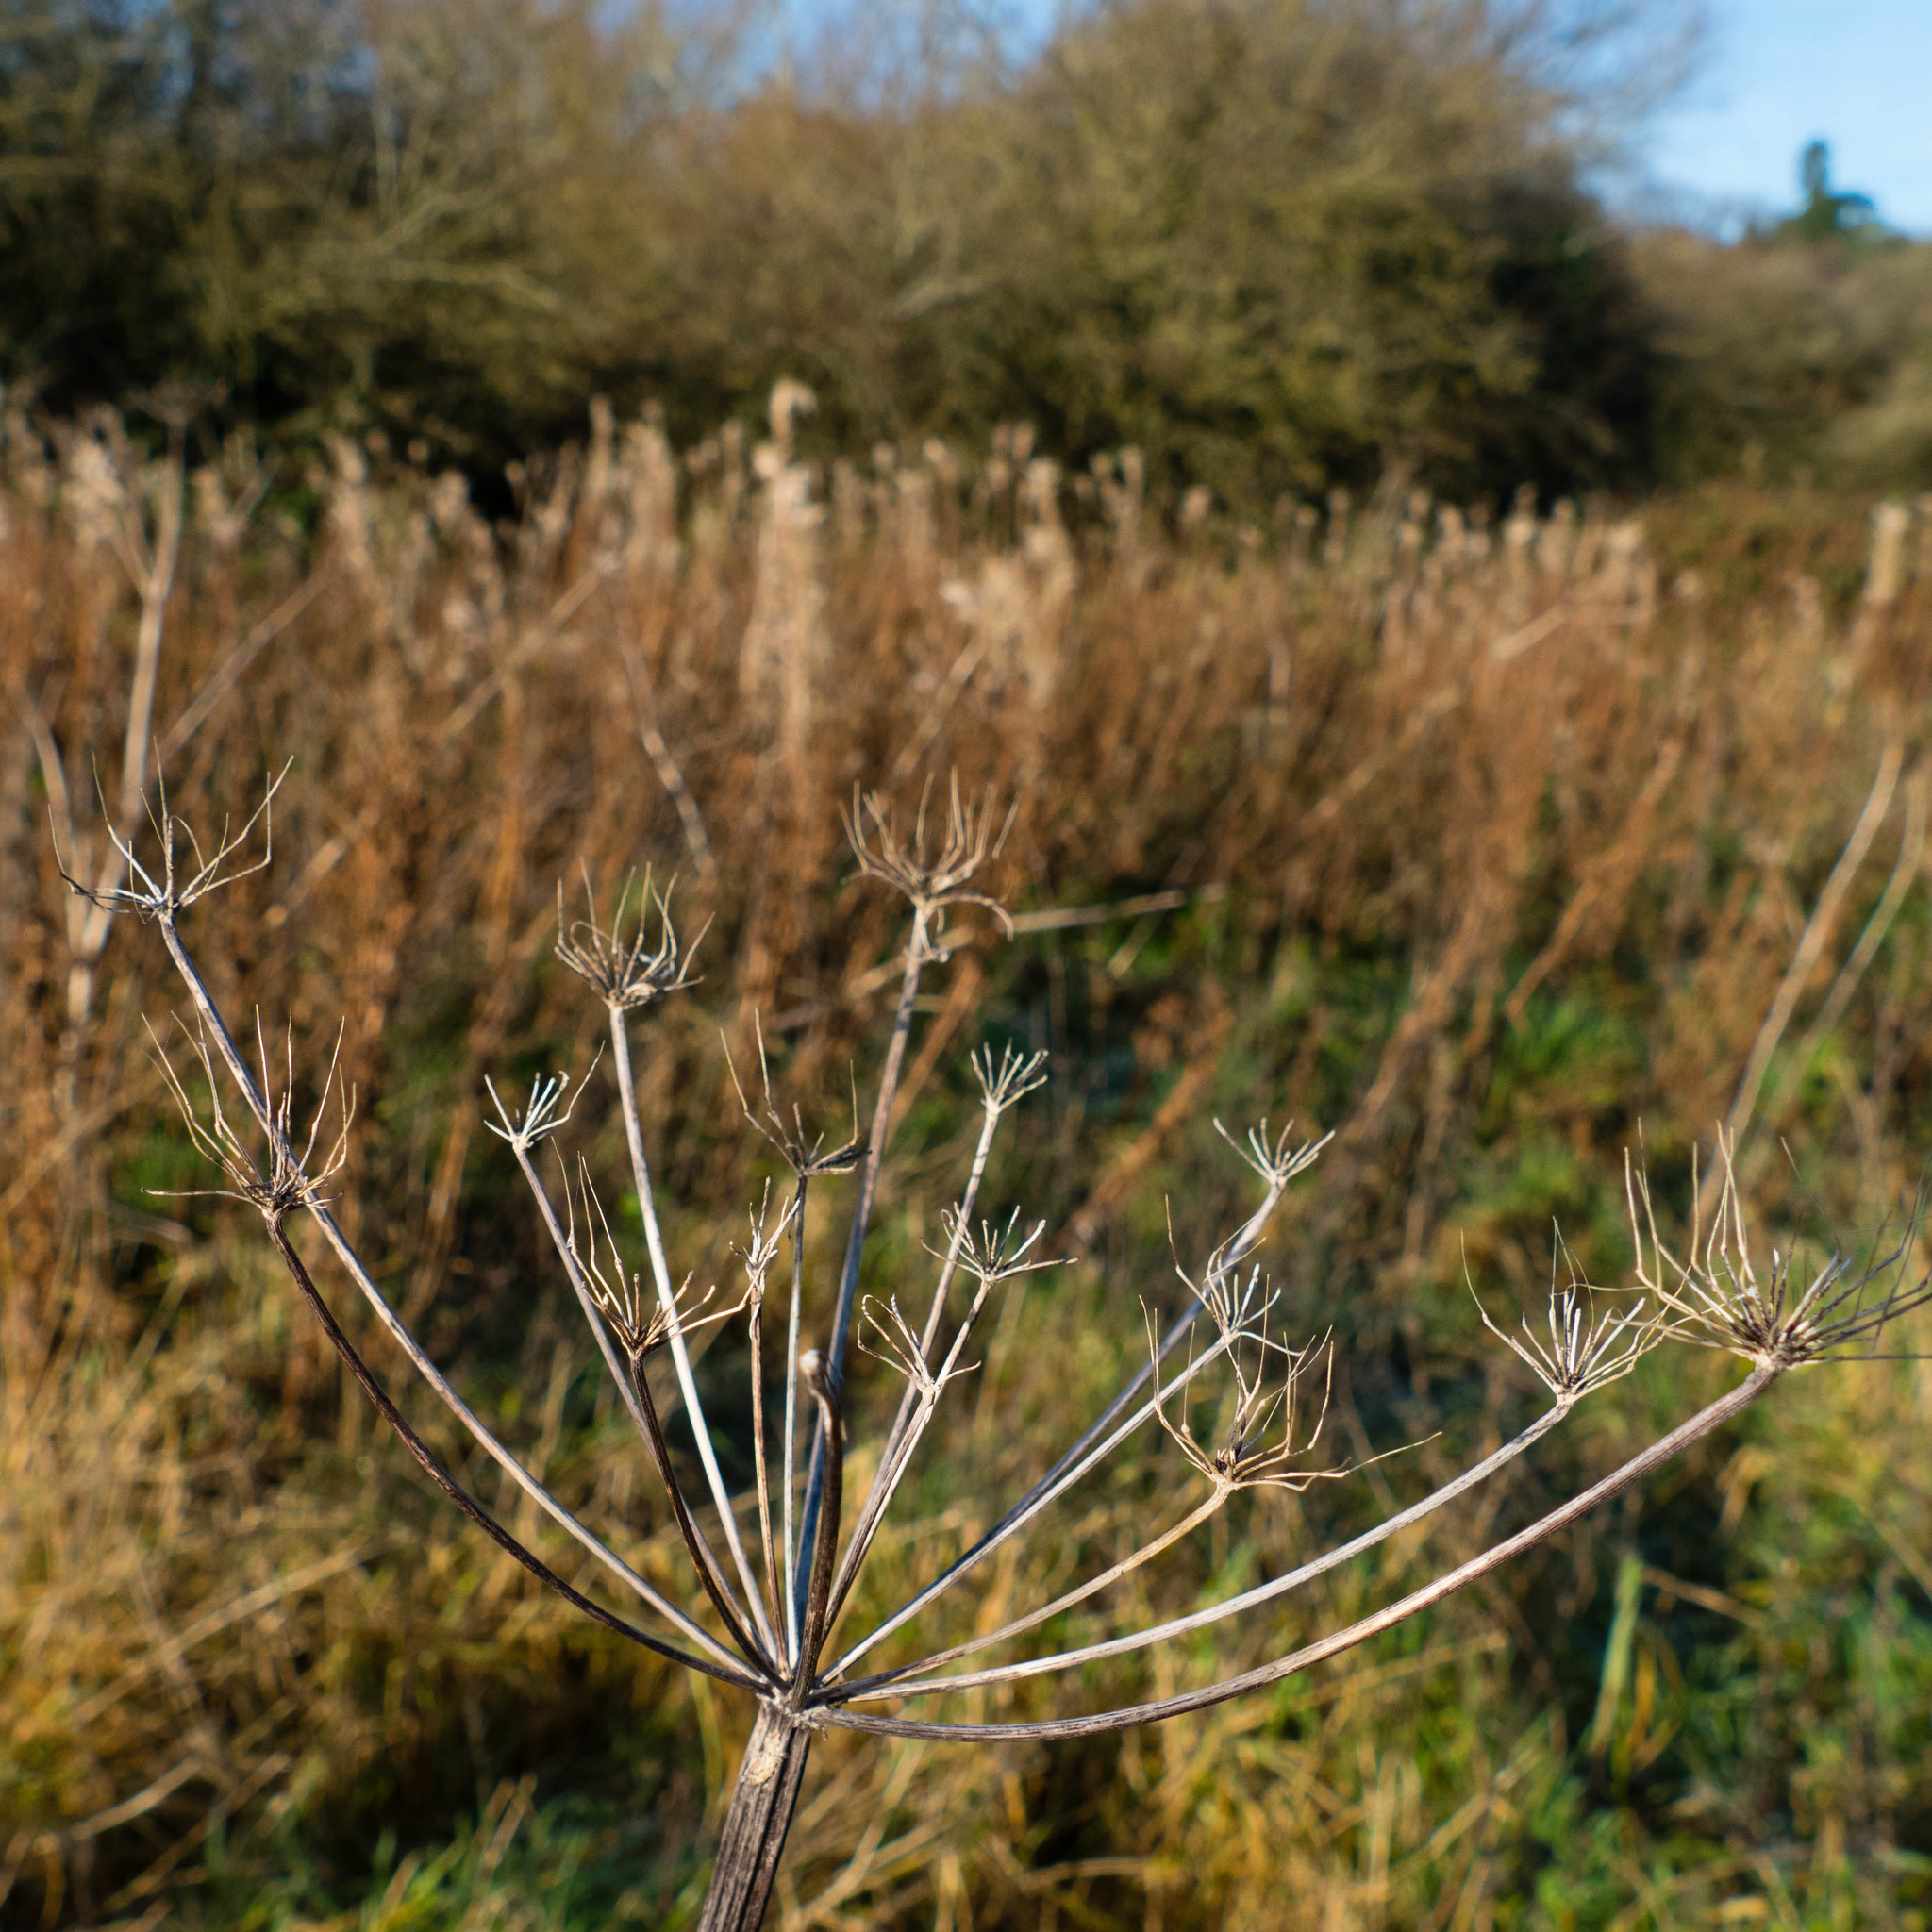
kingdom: Plantae
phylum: Tracheophyta
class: Magnoliopsida
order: Apiales
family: Apiaceae
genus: Heracleum
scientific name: Heracleum sphondylium
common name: Hogweed
